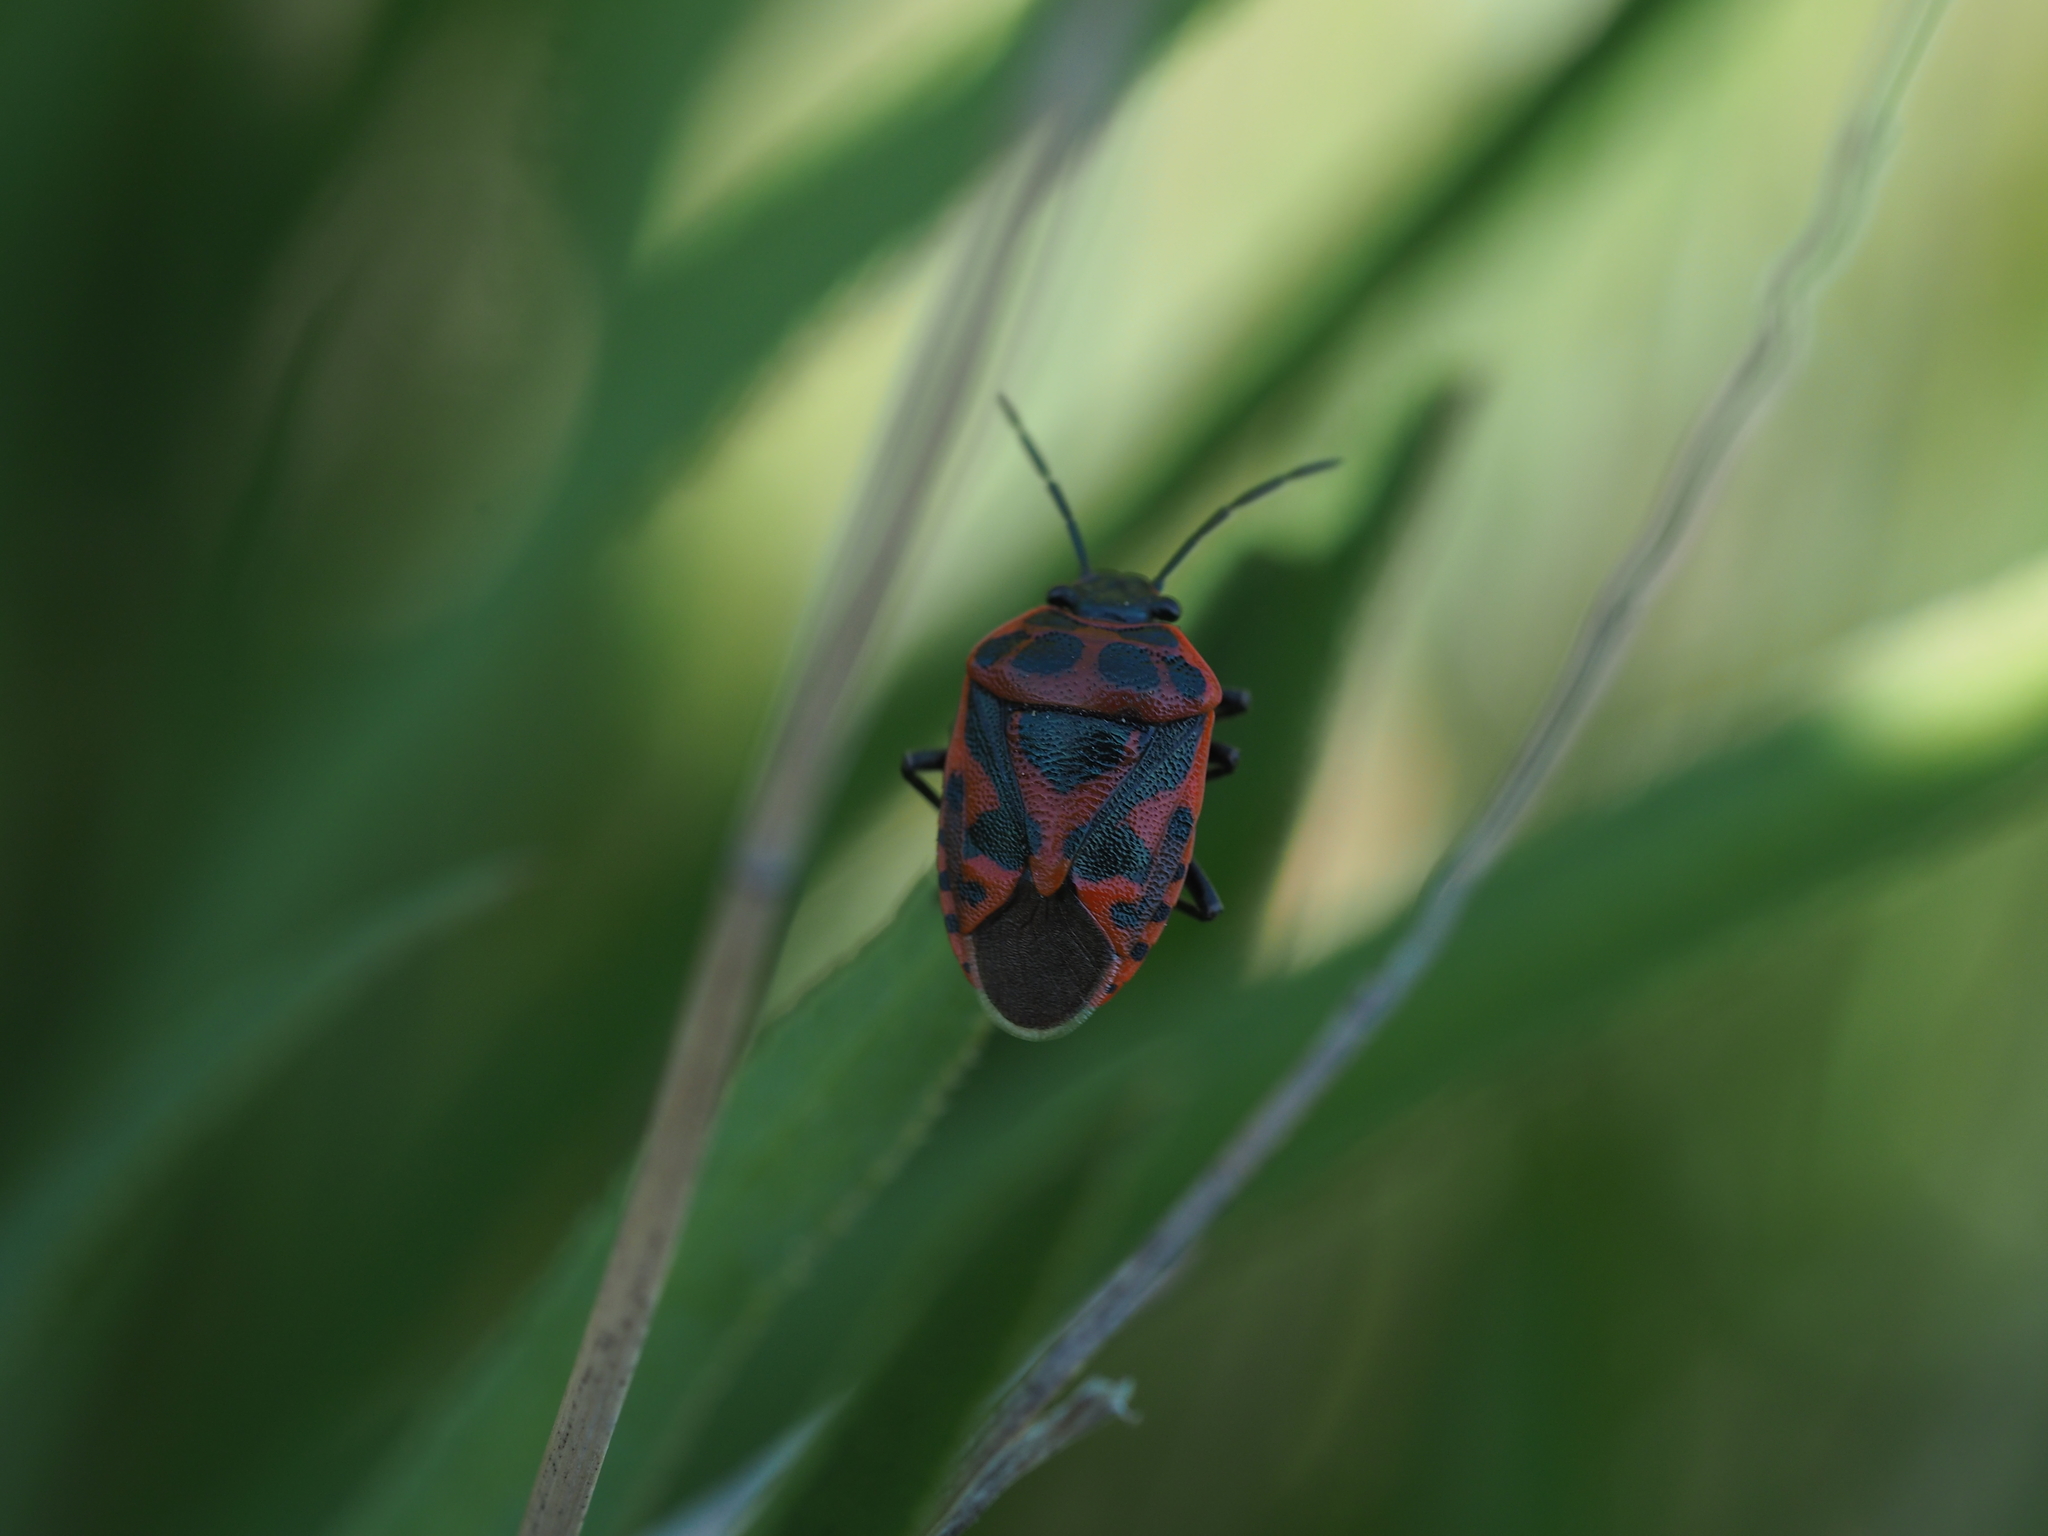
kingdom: Animalia
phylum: Arthropoda
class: Insecta
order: Hemiptera
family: Pentatomidae
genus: Eurydema
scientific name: Eurydema ventralis
